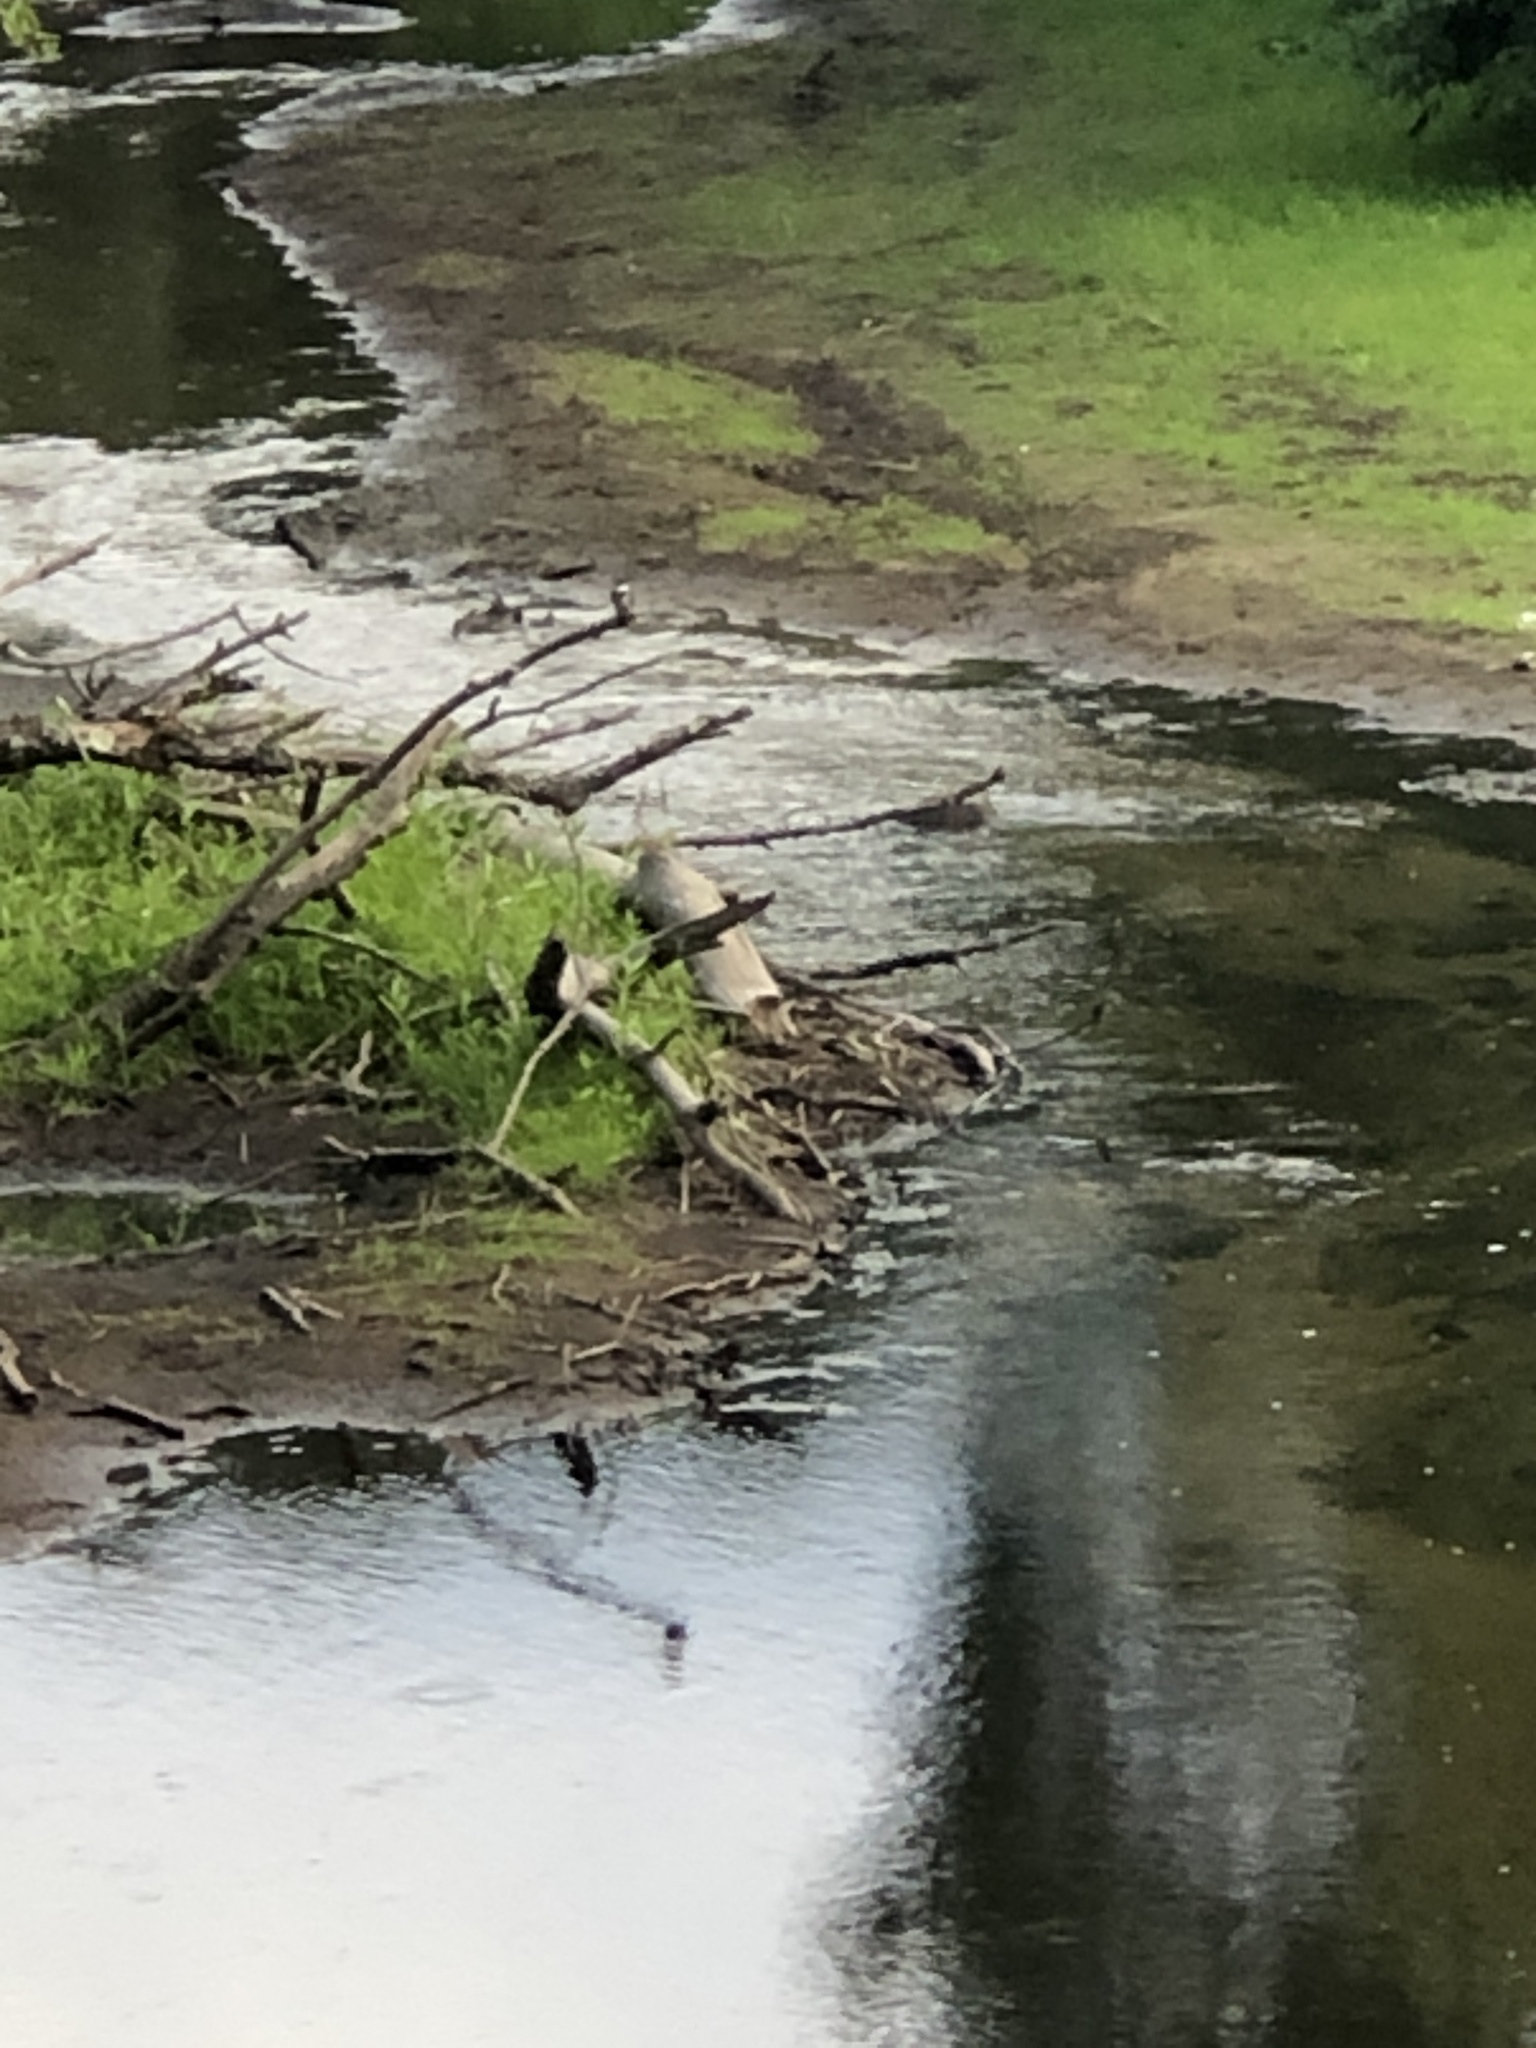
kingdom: Animalia
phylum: Chordata
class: Aves
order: Coraciiformes
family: Alcedinidae
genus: Megaceryle
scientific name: Megaceryle alcyon
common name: Belted kingfisher
